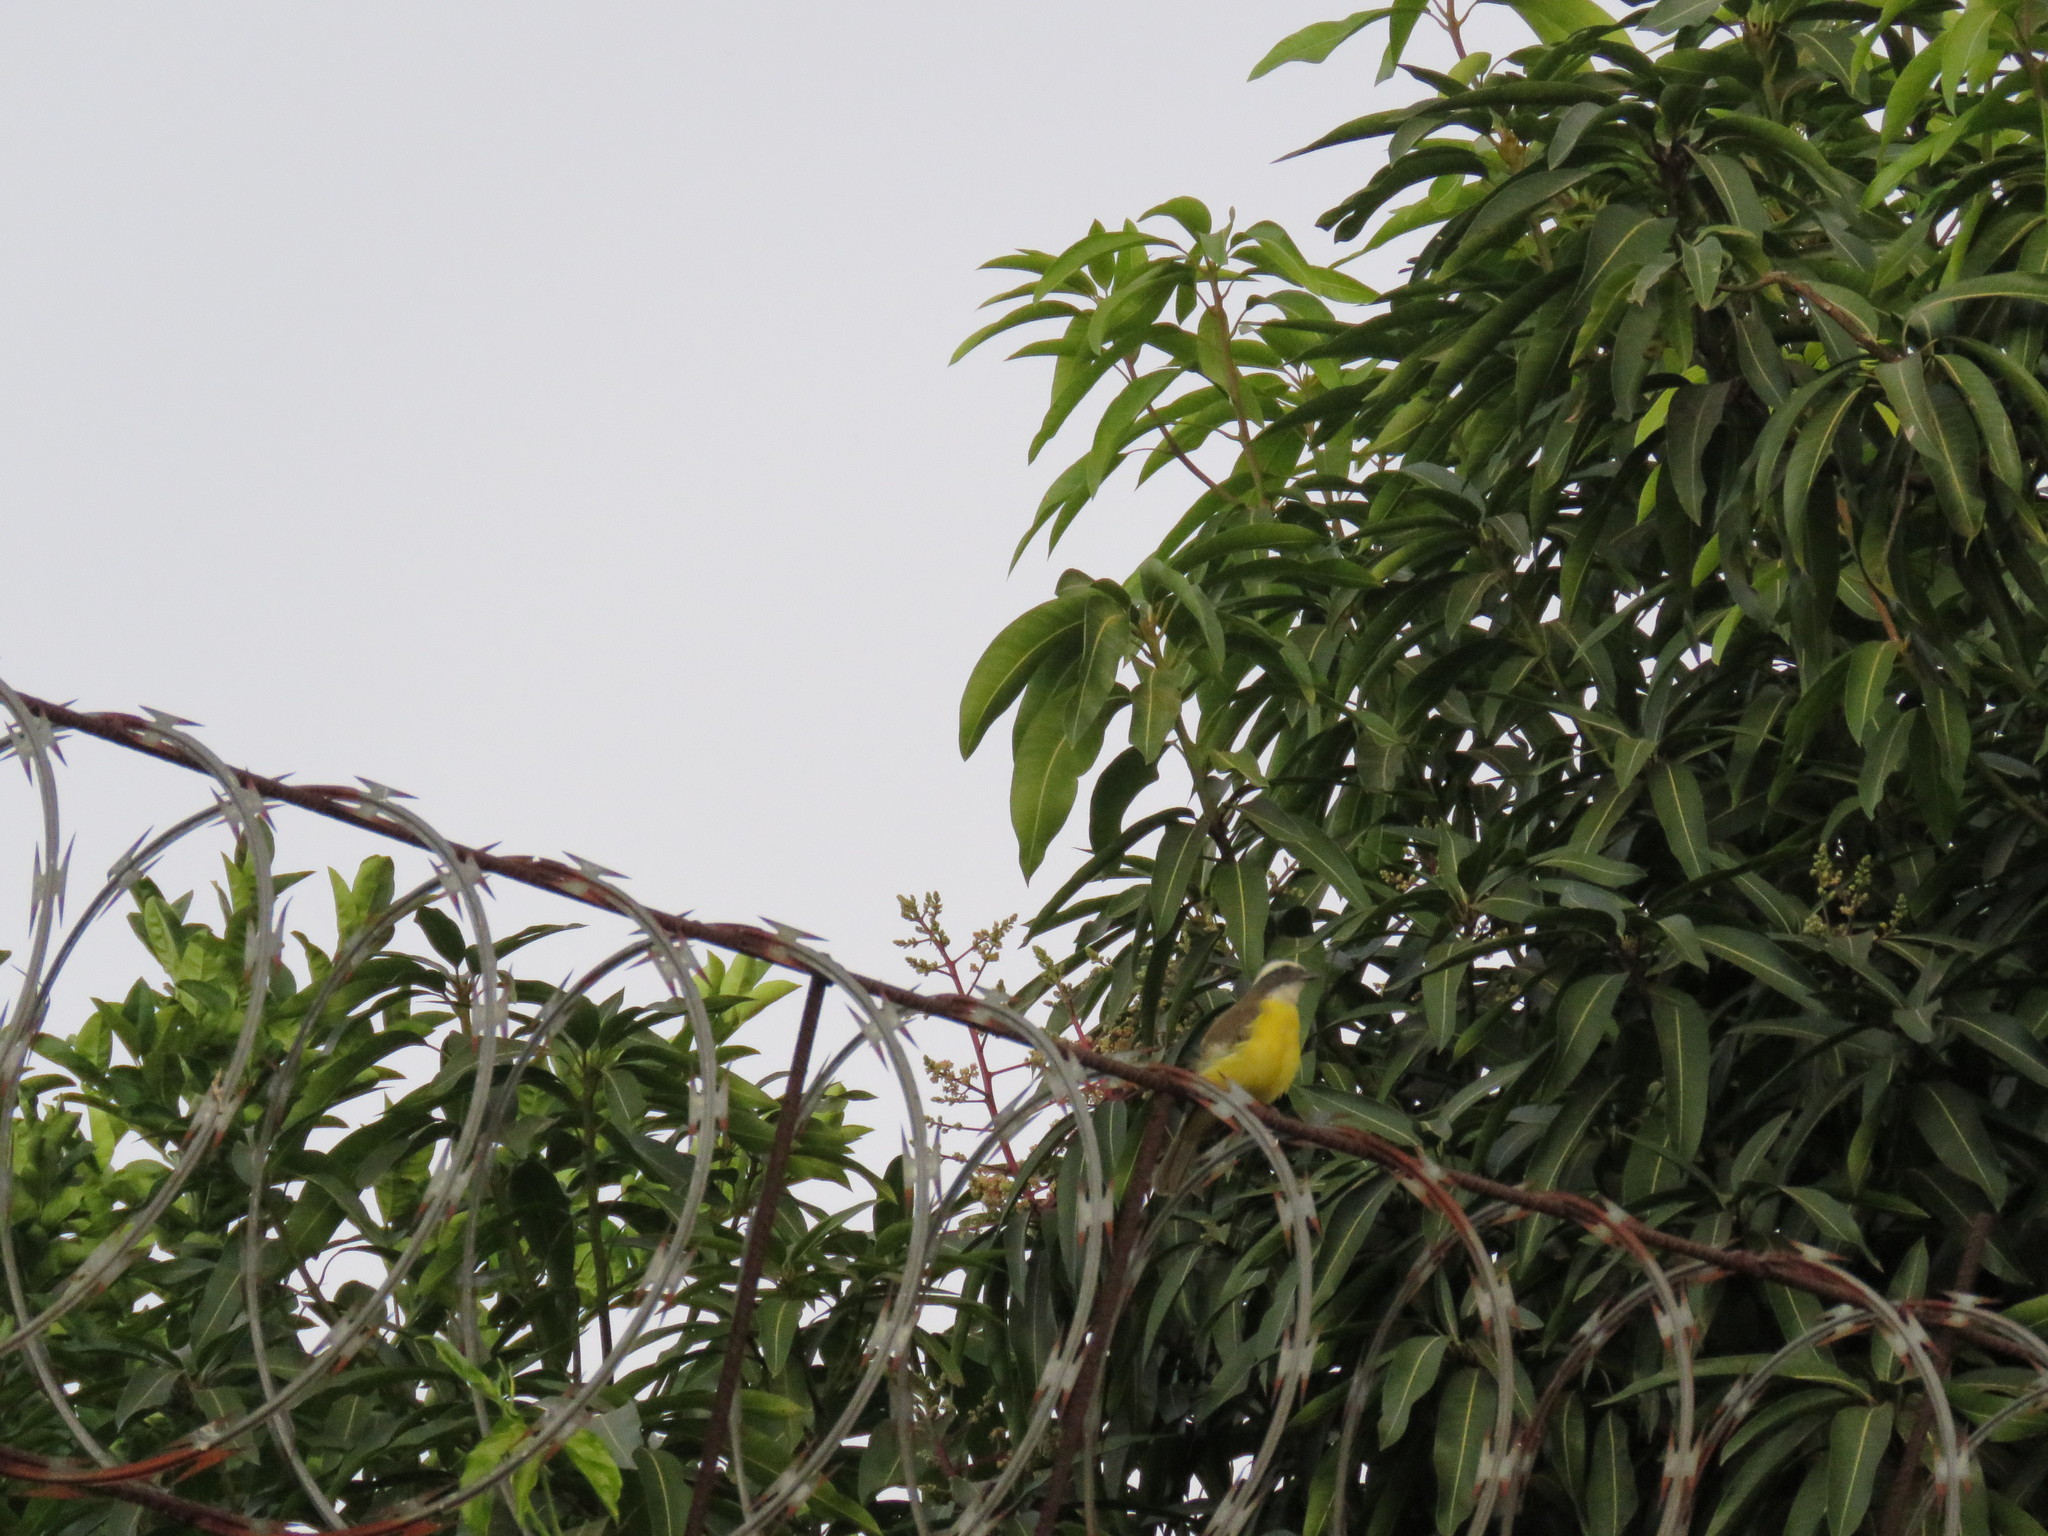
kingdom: Animalia
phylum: Chordata
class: Aves
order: Passeriformes
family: Tyrannidae
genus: Myiozetetes
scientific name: Myiozetetes similis
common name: Social flycatcher
